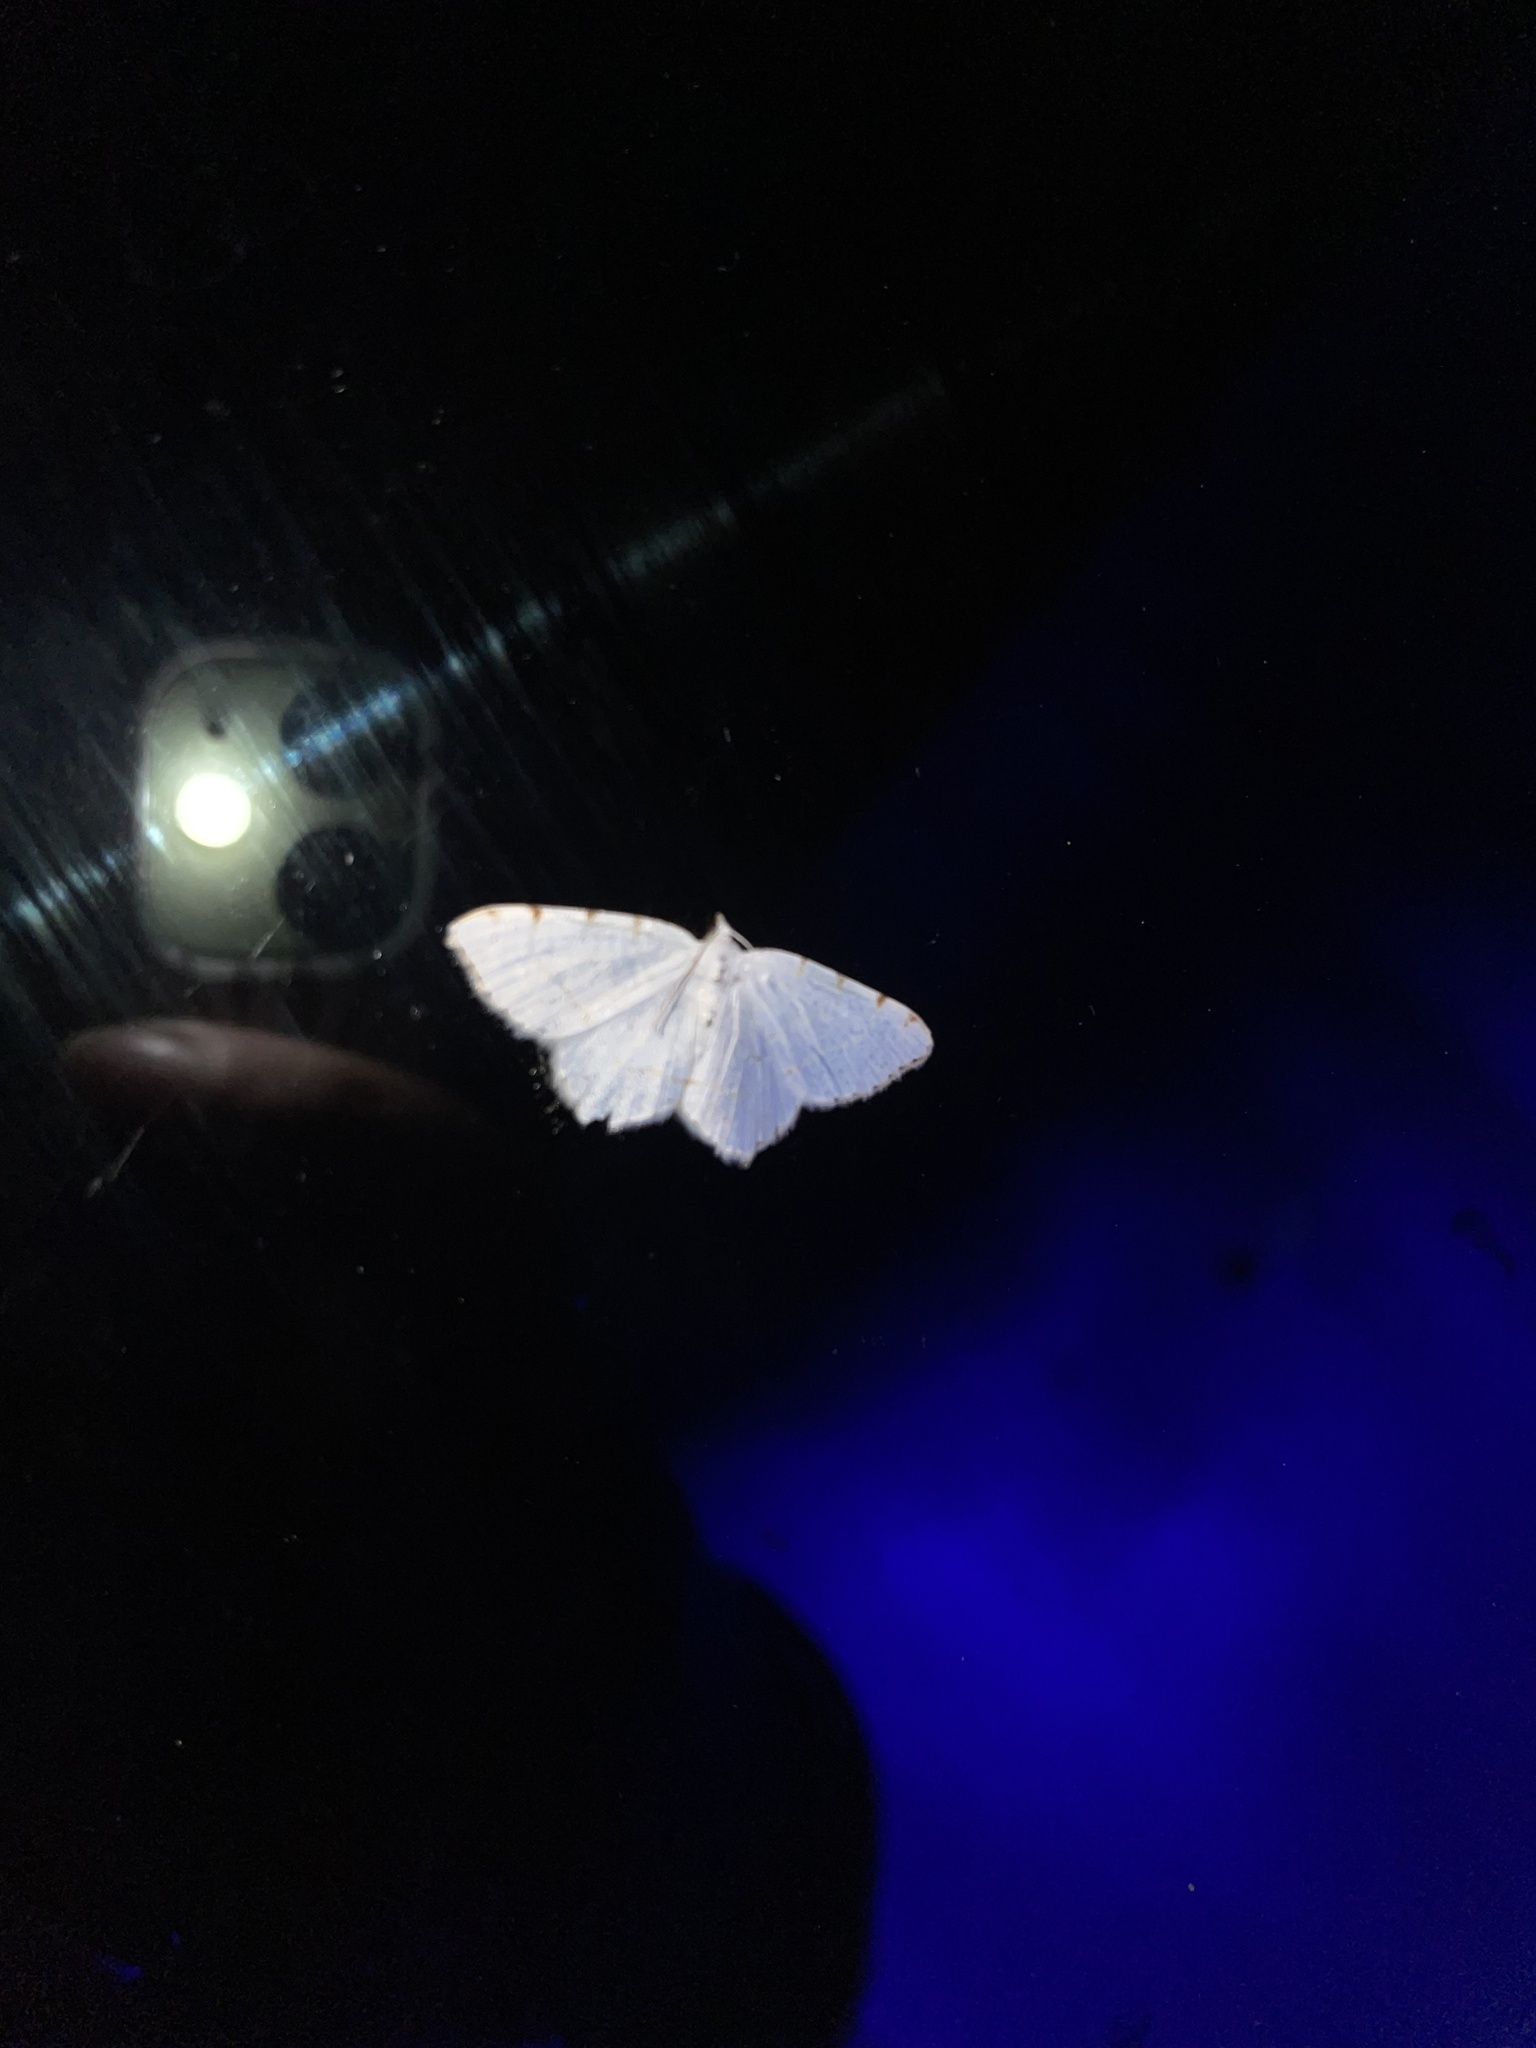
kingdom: Animalia
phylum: Arthropoda
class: Insecta
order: Lepidoptera
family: Geometridae
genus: Macaria
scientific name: Macaria pustularia
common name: Lesser maple spanworm moth
